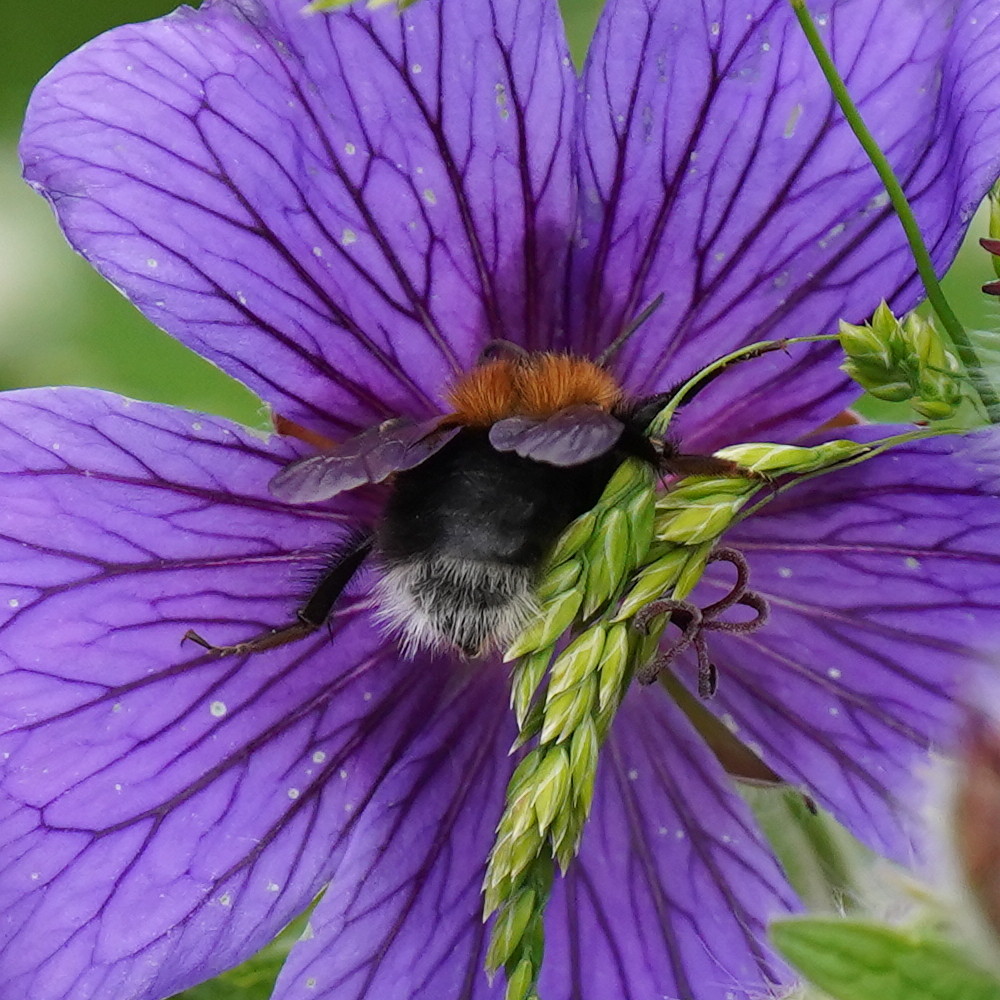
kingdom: Animalia
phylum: Arthropoda
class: Insecta
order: Hymenoptera
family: Apidae
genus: Bombus
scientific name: Bombus hypnorum
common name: New garden bumblebee
